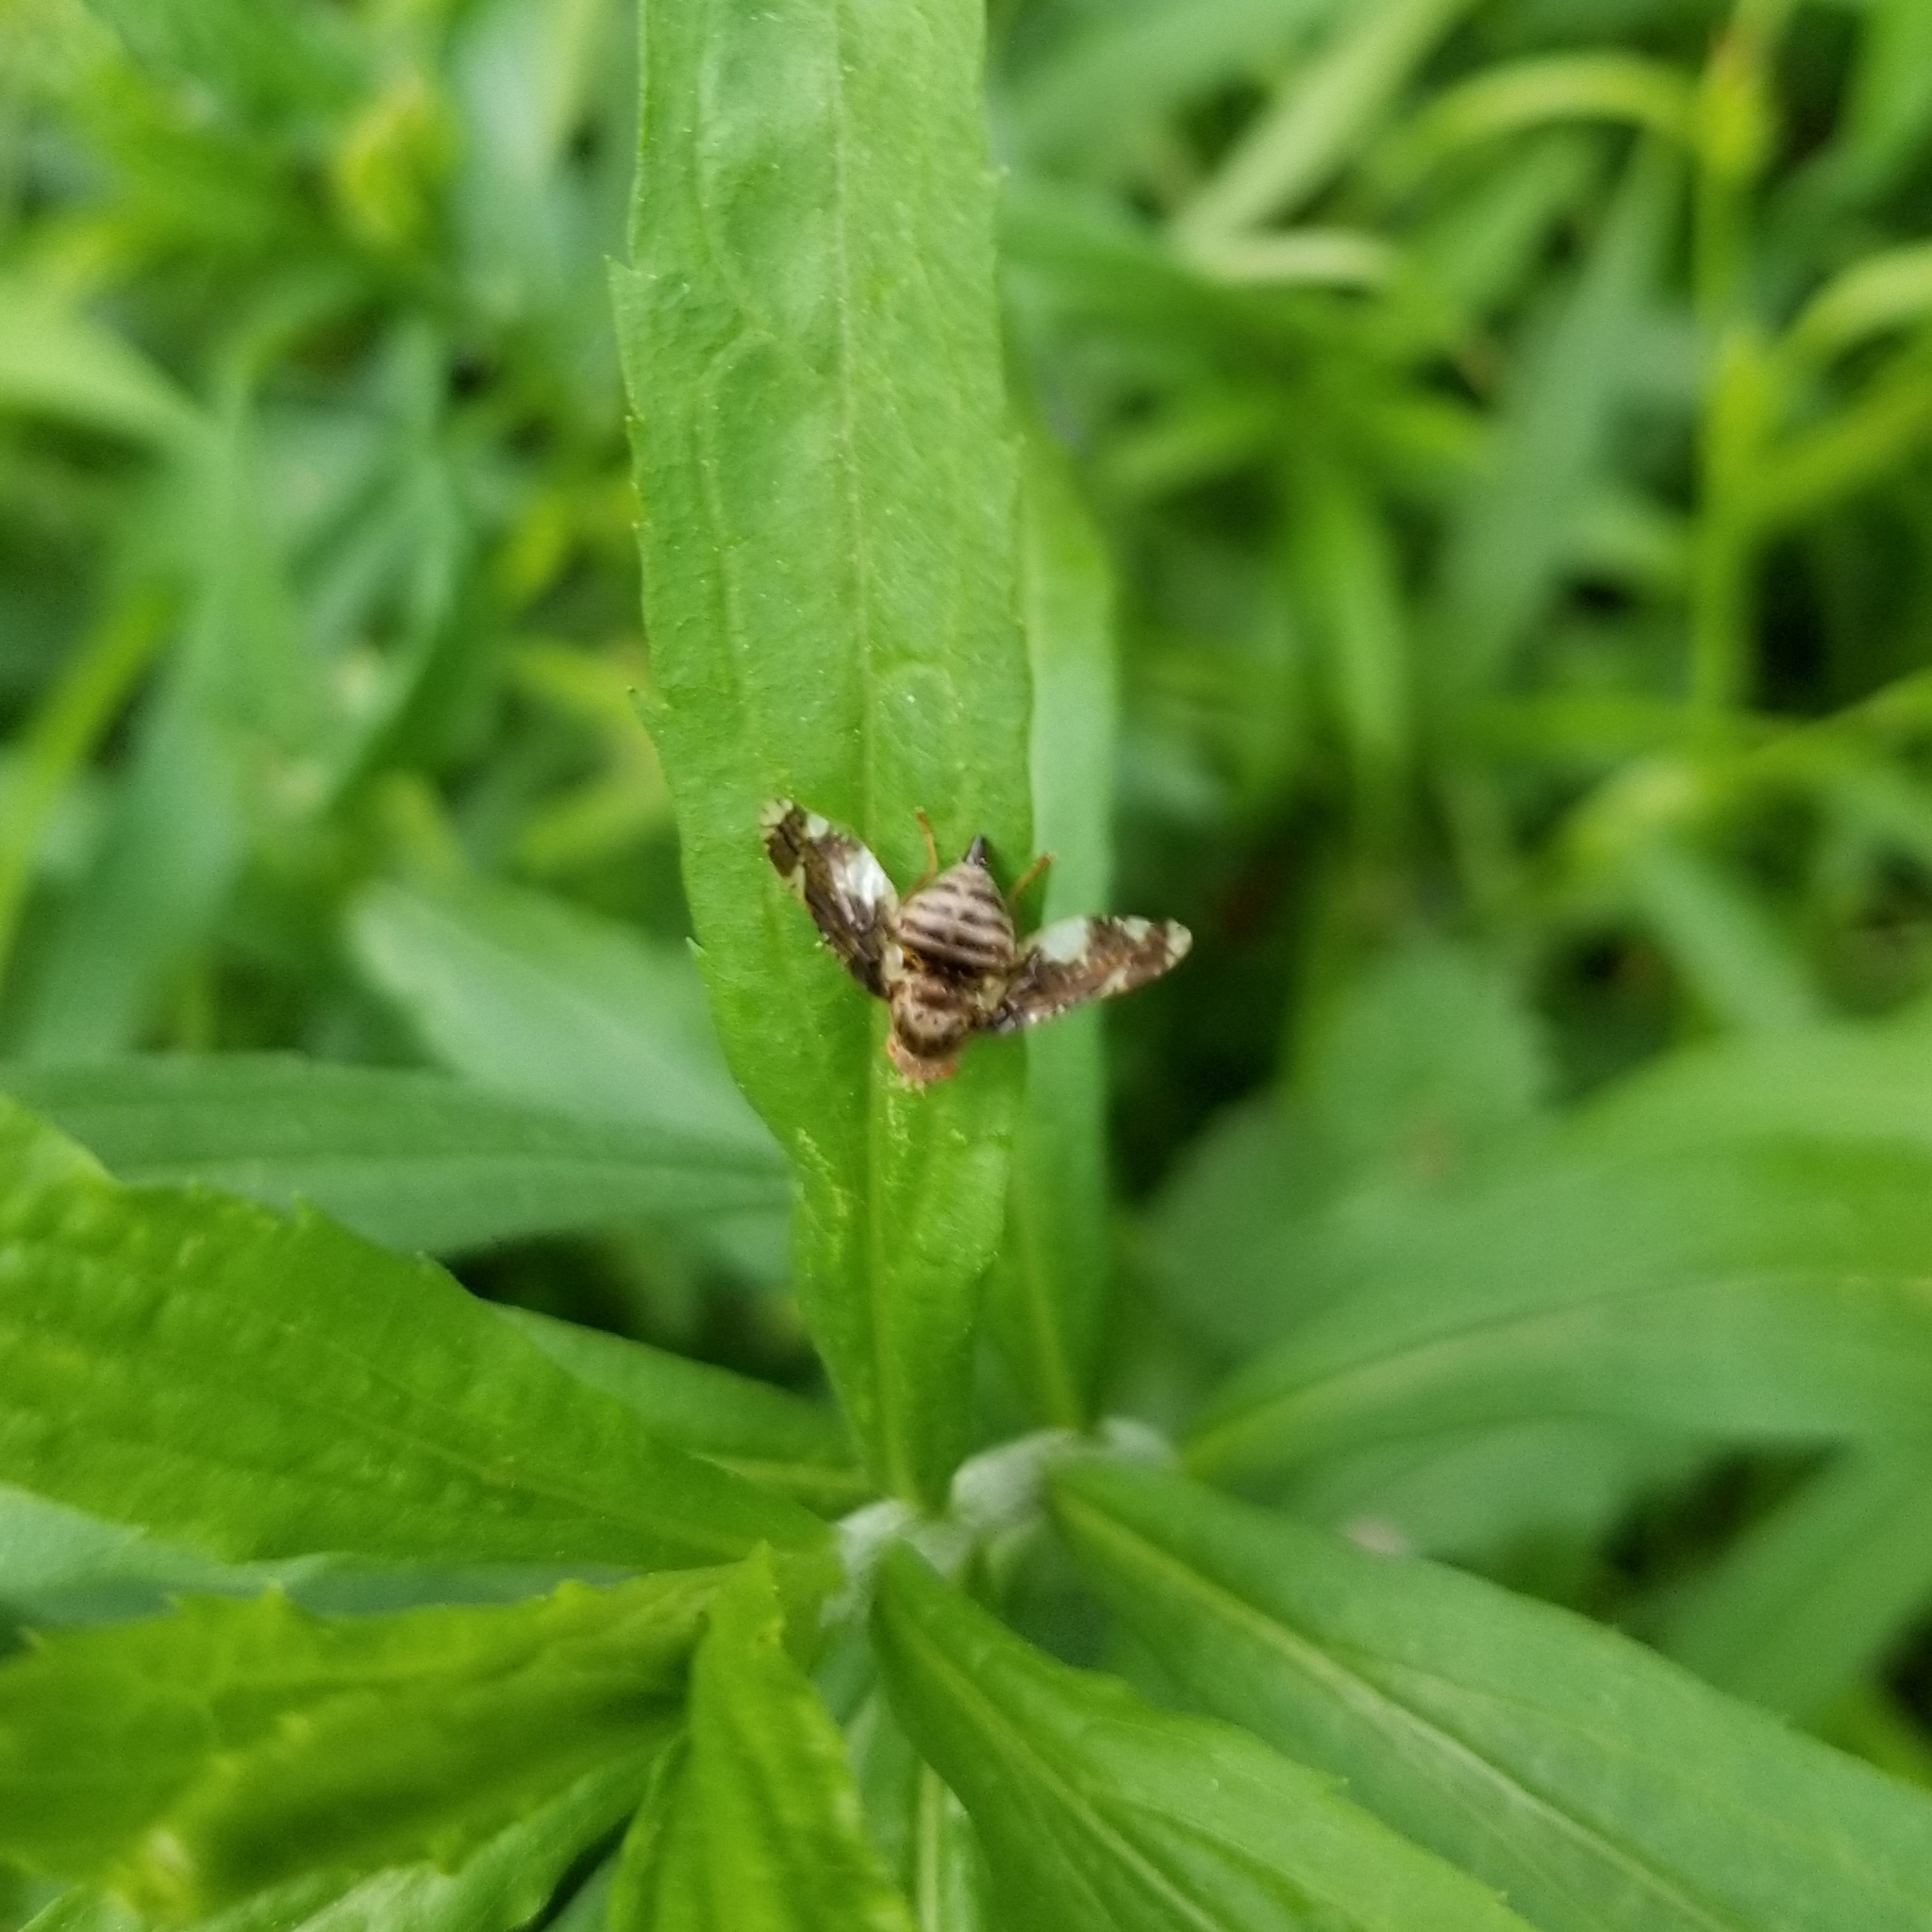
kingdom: Animalia
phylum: Arthropoda
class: Insecta
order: Diptera
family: Tephritidae
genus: Eurosta
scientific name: Eurosta solidaginis
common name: Goldenrod gall fly
